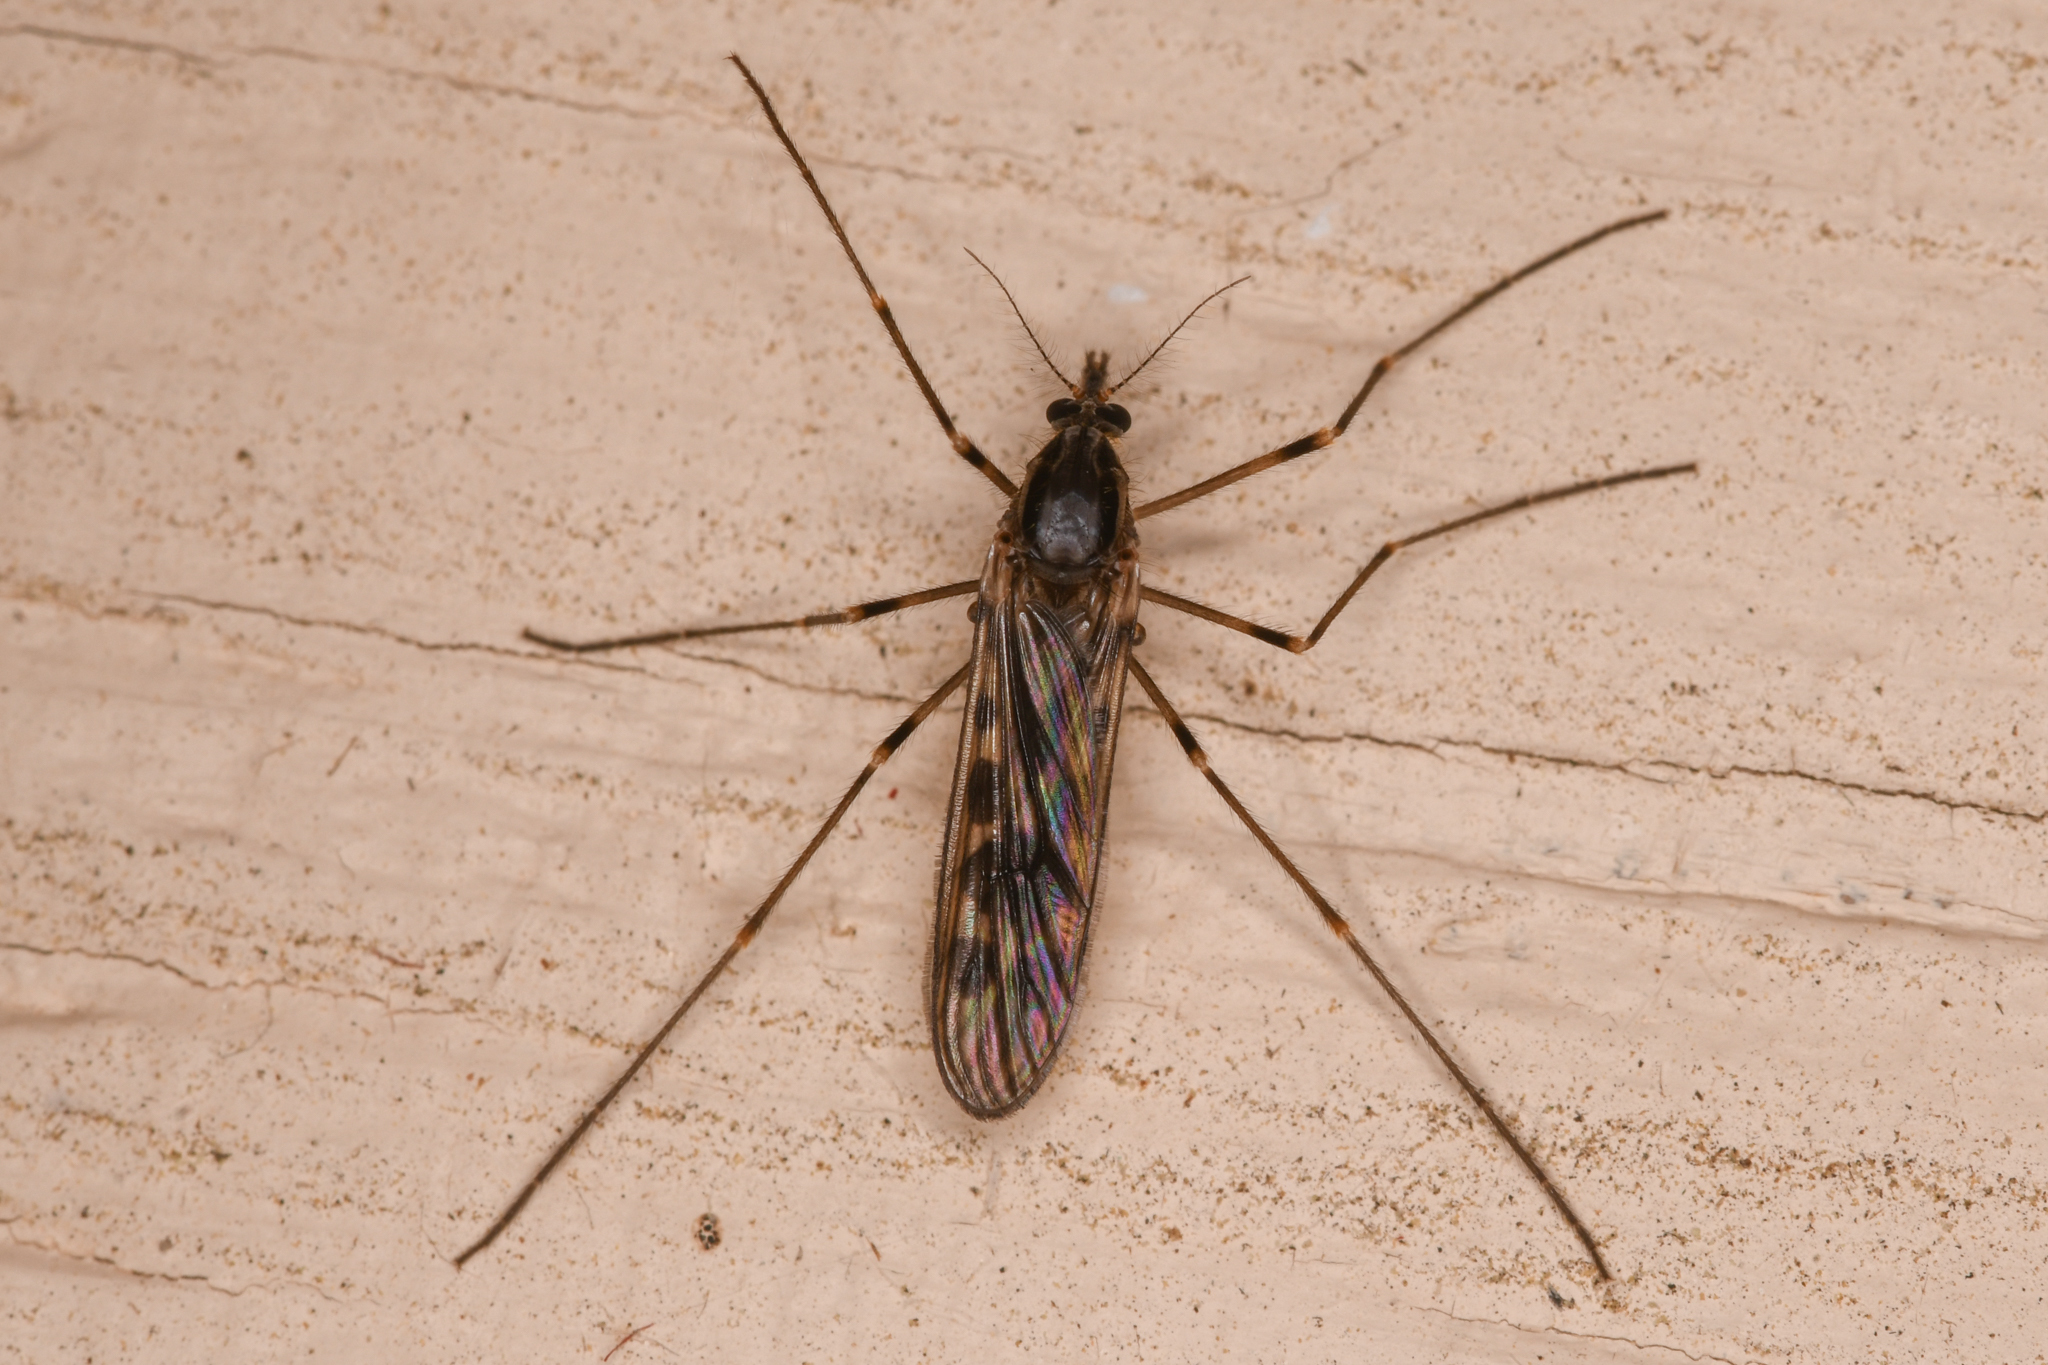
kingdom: Animalia
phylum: Arthropoda
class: Insecta
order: Diptera
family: Chaoboridae
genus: Eucorethra
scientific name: Eucorethra underwoodi
